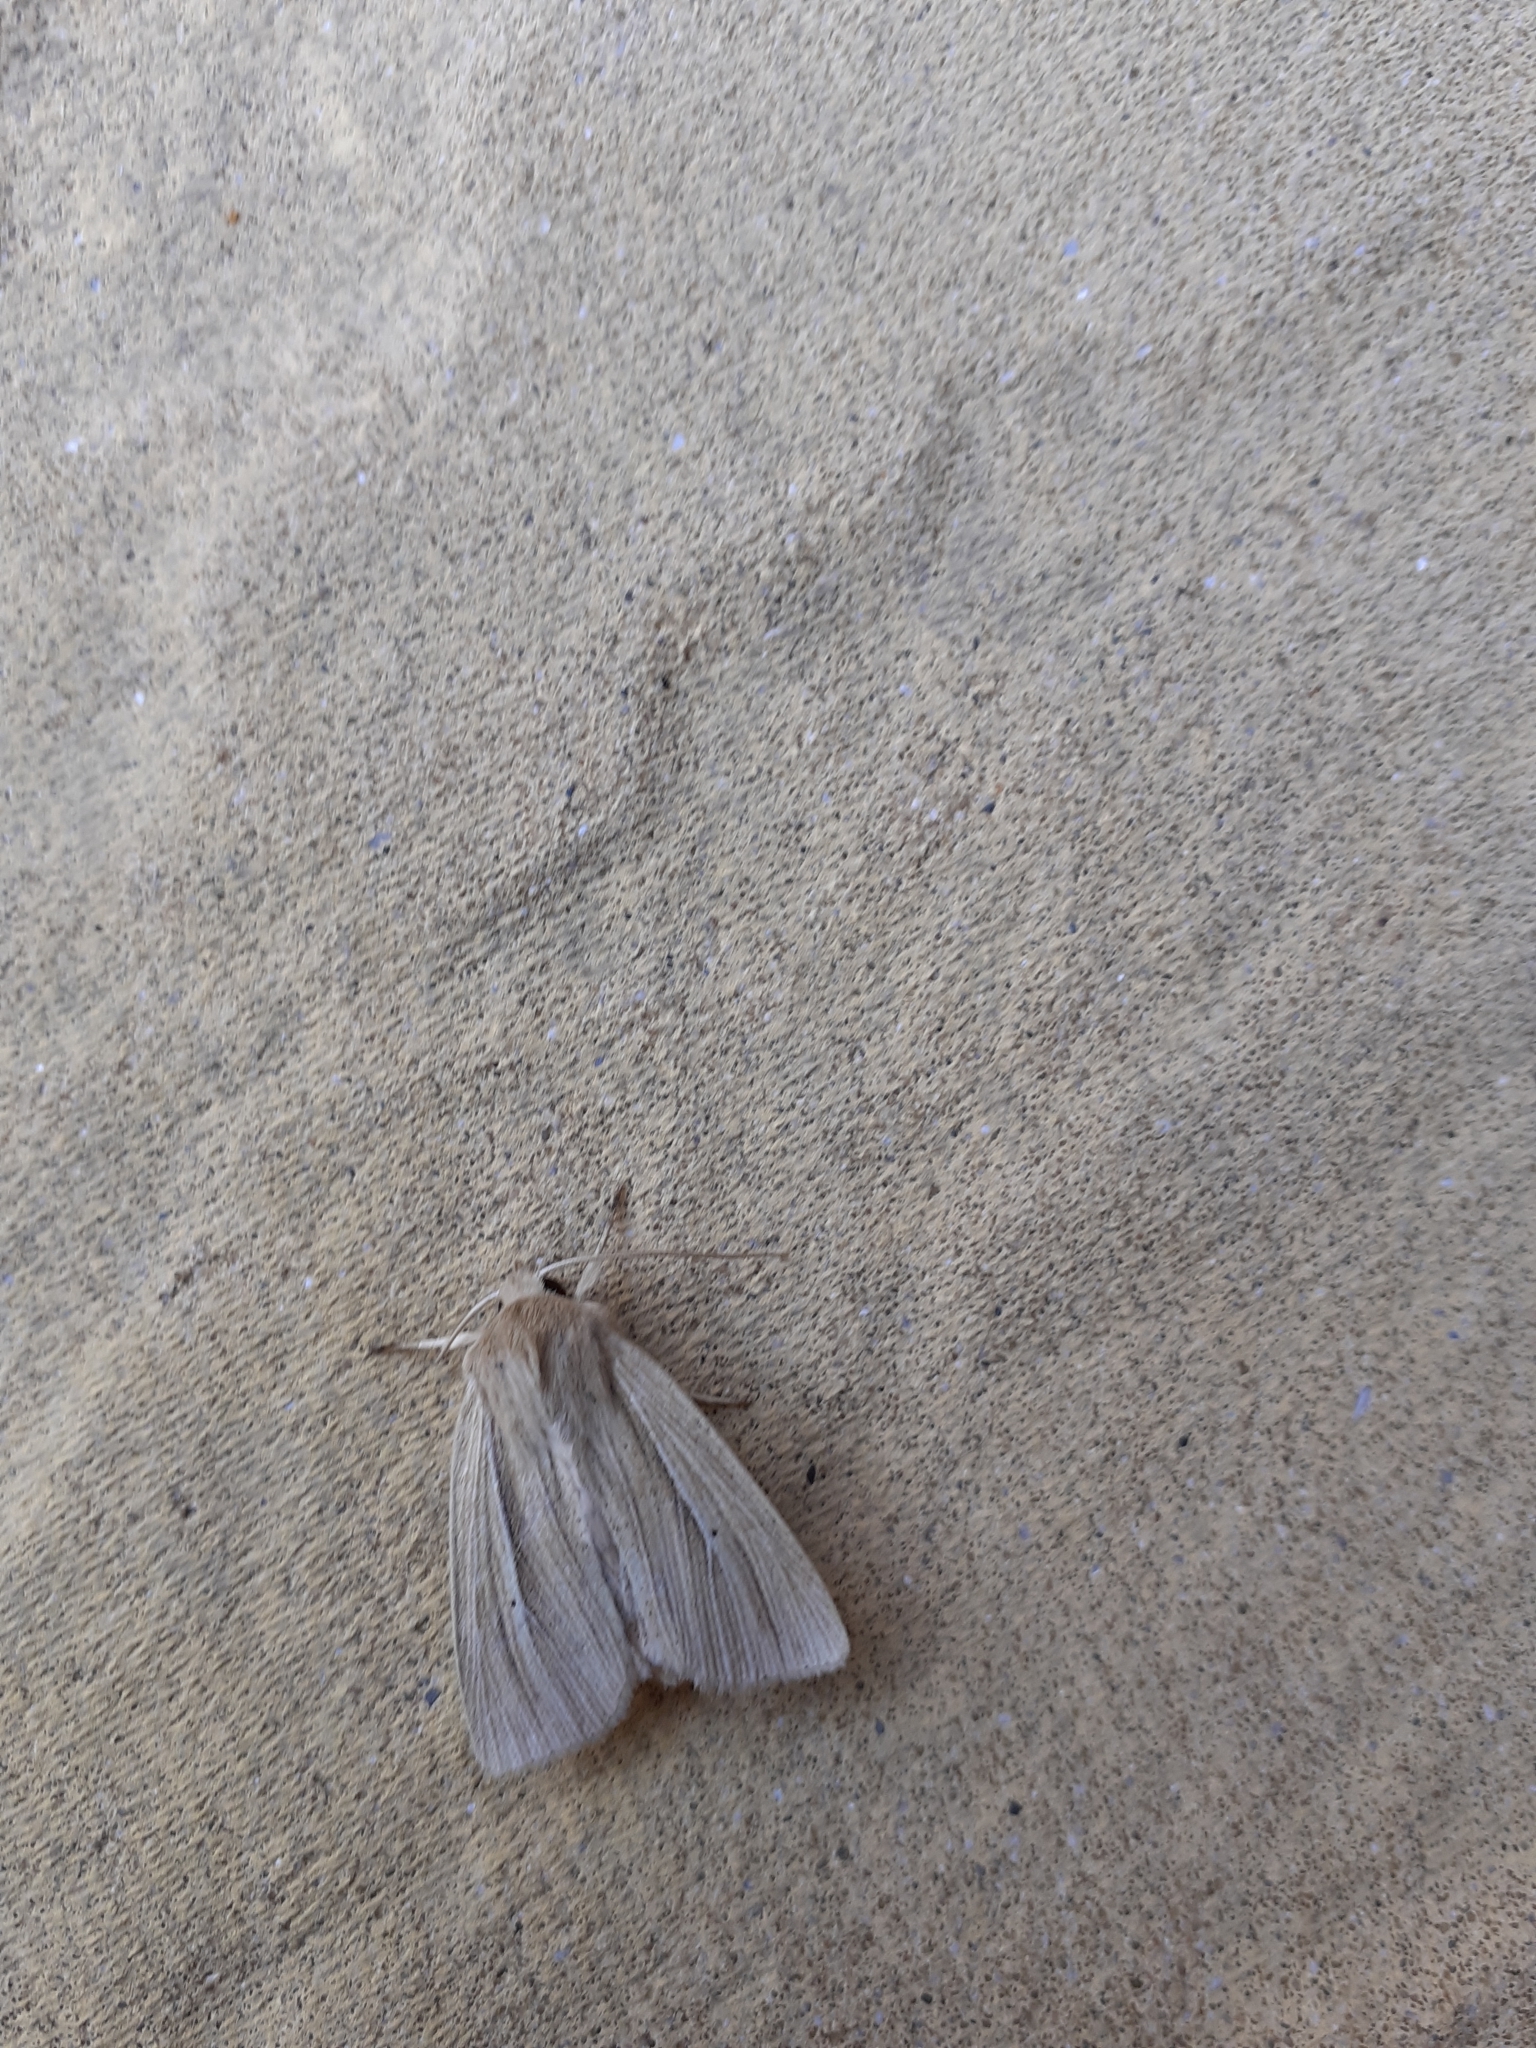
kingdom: Animalia
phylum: Arthropoda
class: Insecta
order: Lepidoptera
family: Noctuidae
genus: Mythimna
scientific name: Mythimna impura
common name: Smoky wainscot
